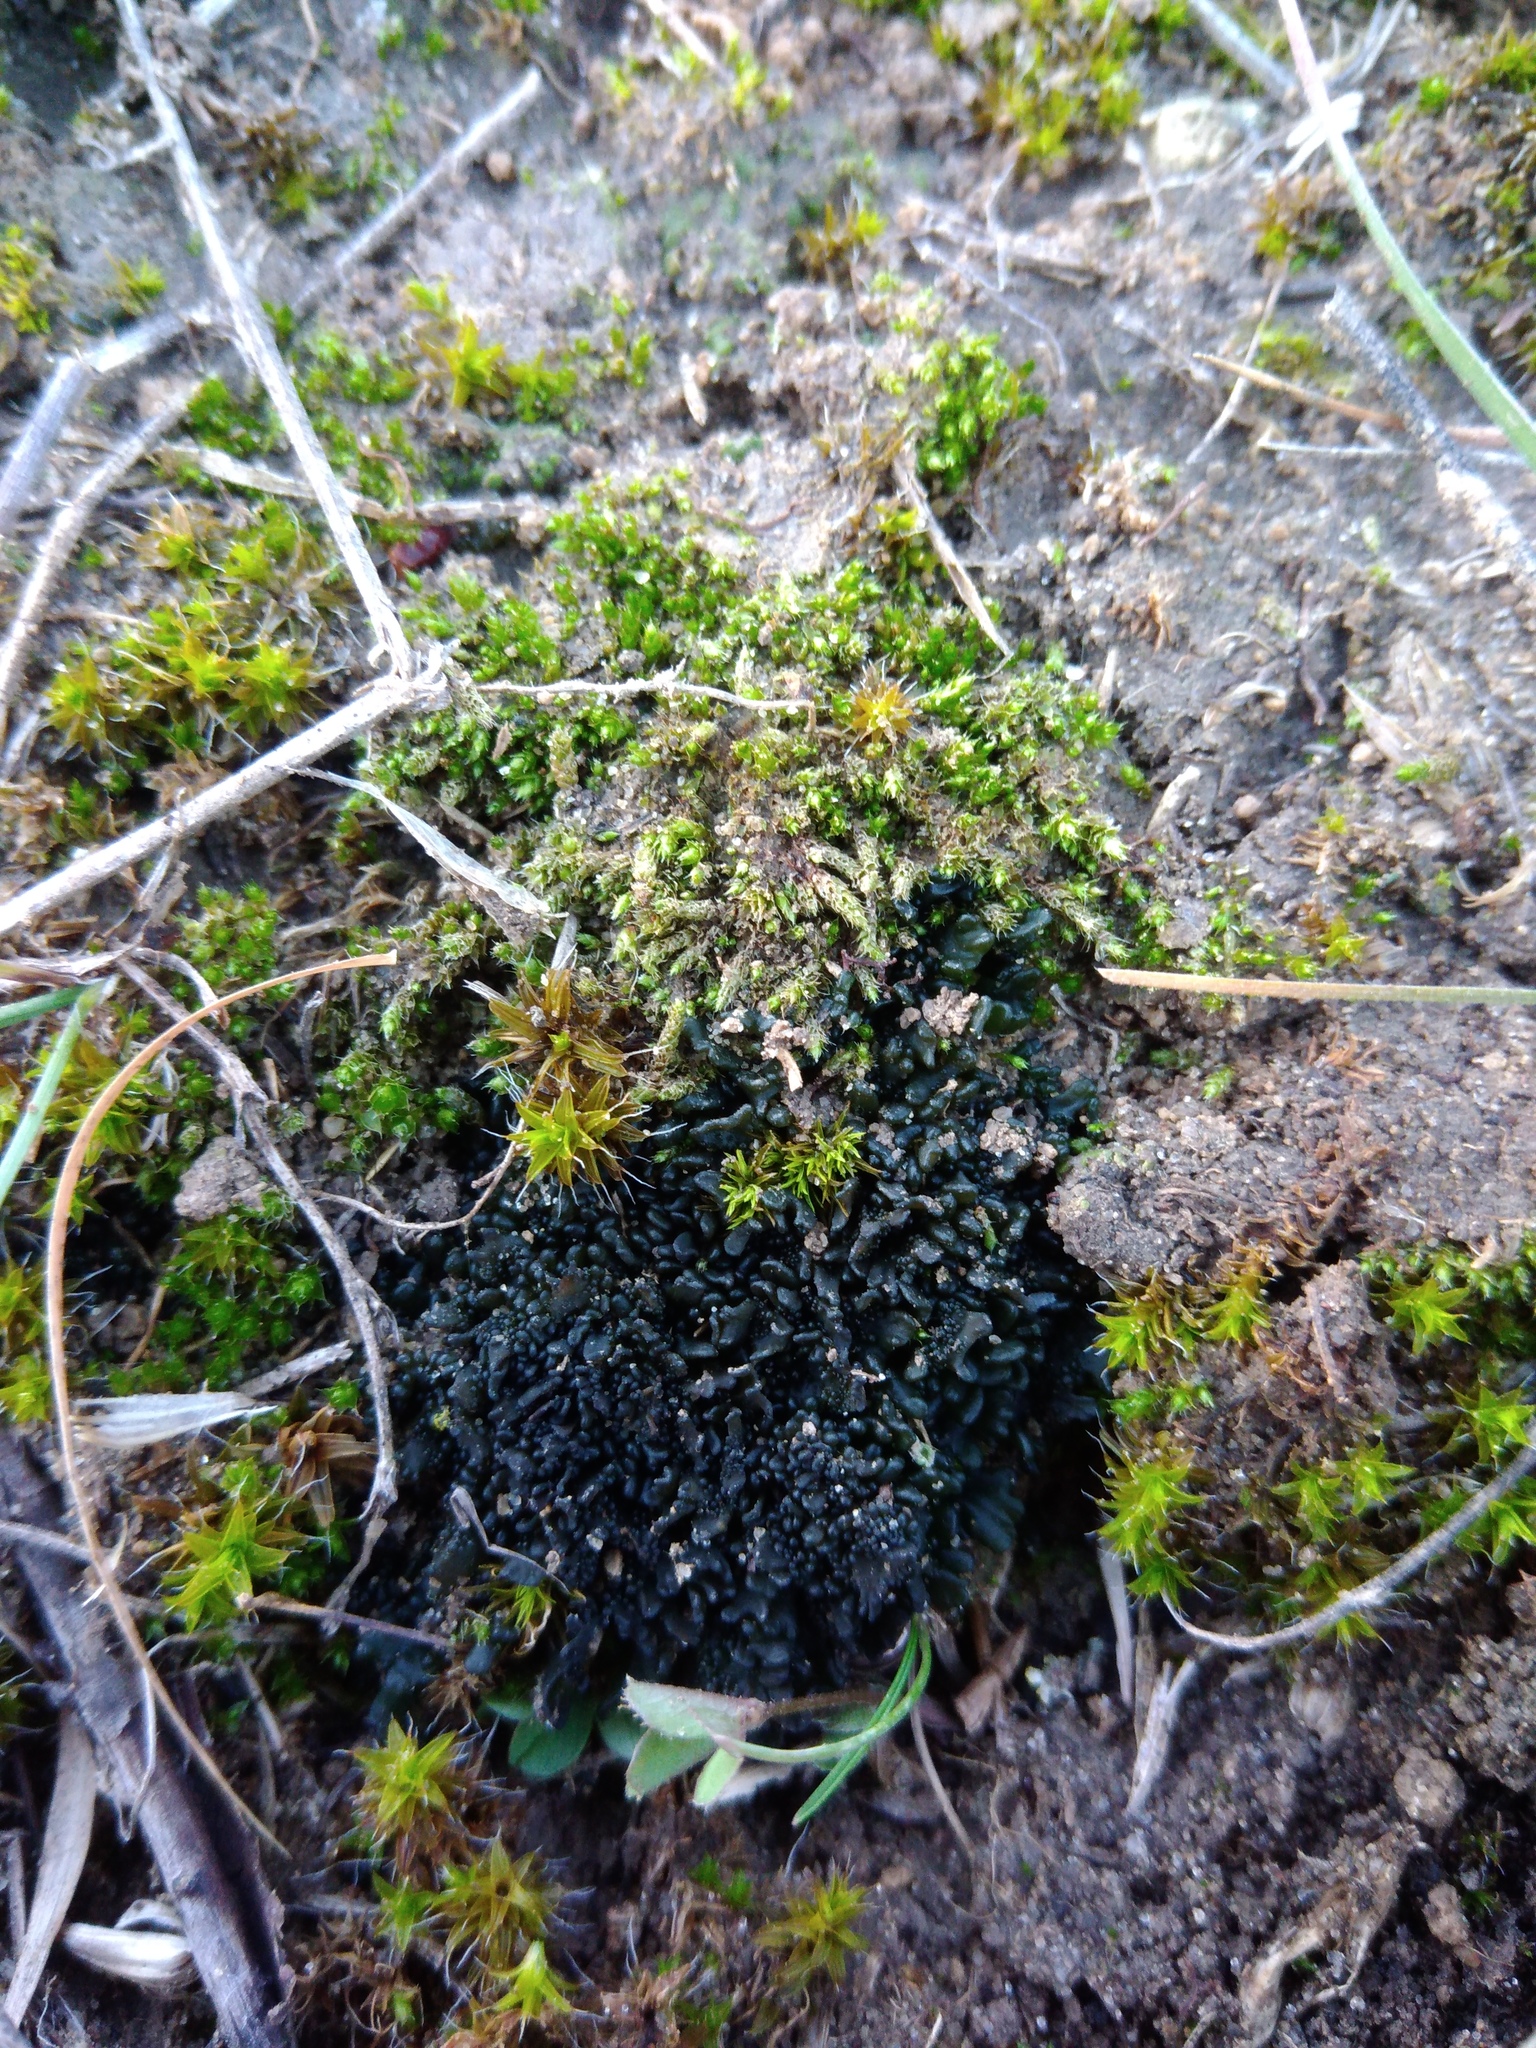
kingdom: Fungi
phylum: Ascomycota
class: Lecanoromycetes
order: Peltigerales
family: Collemataceae
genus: Enchylium
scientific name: Enchylium tenax
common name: Jelly lichen
